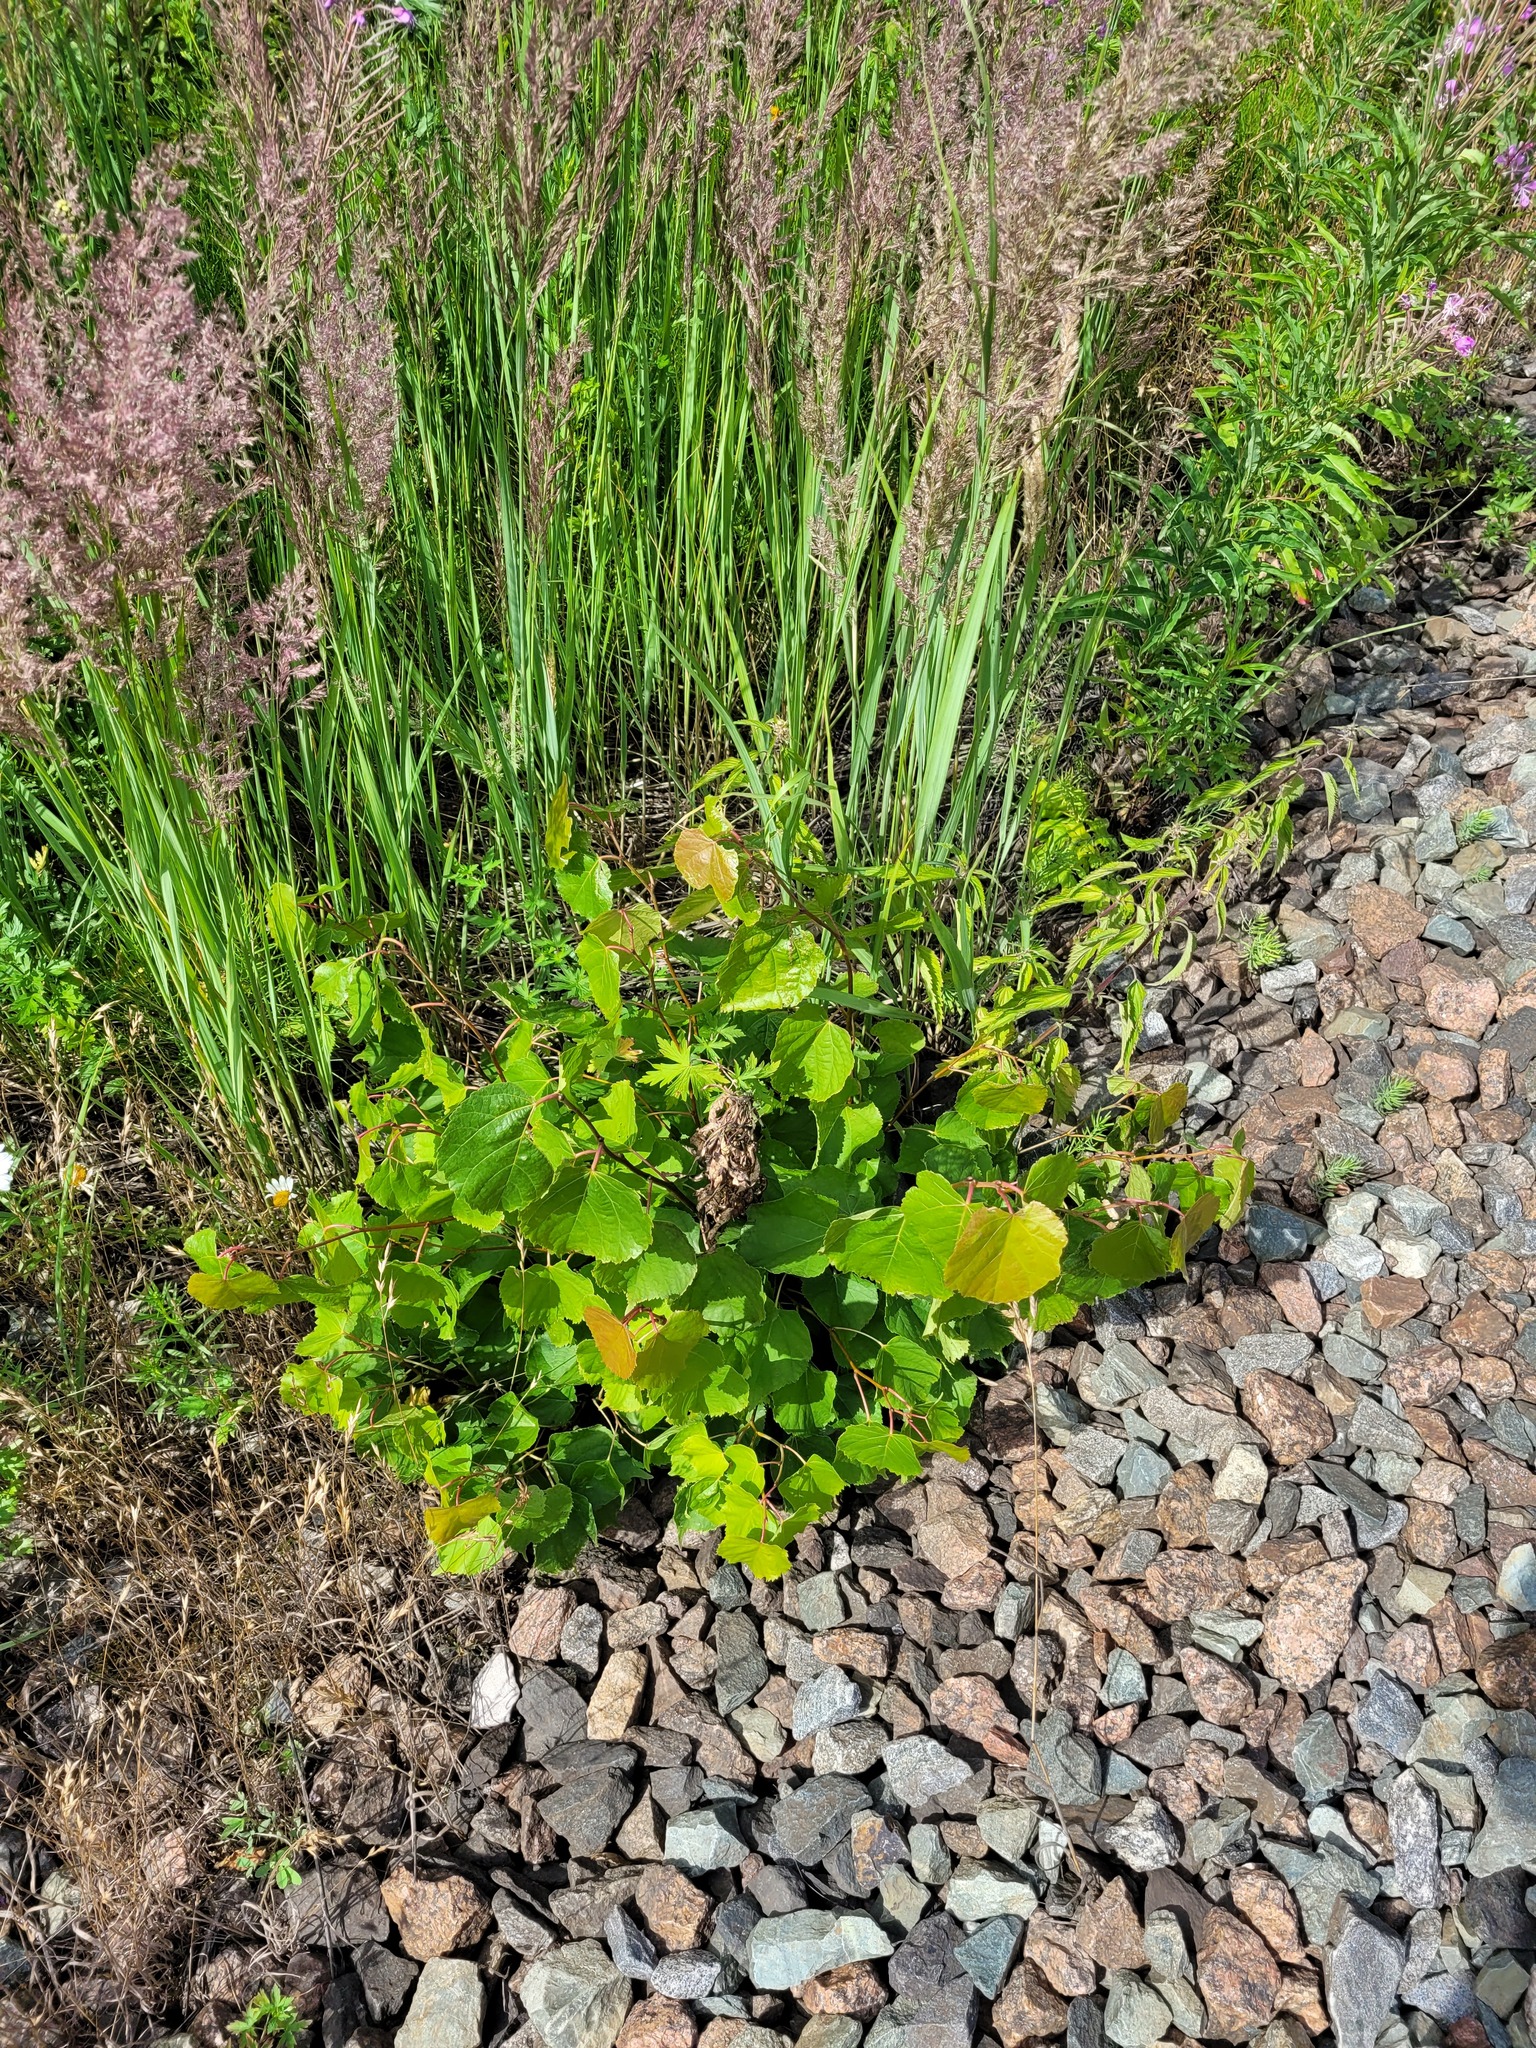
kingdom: Plantae
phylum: Tracheophyta
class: Magnoliopsida
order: Malvales
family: Malvaceae
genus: Tilia
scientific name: Tilia cordata
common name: Small-leaved lime
